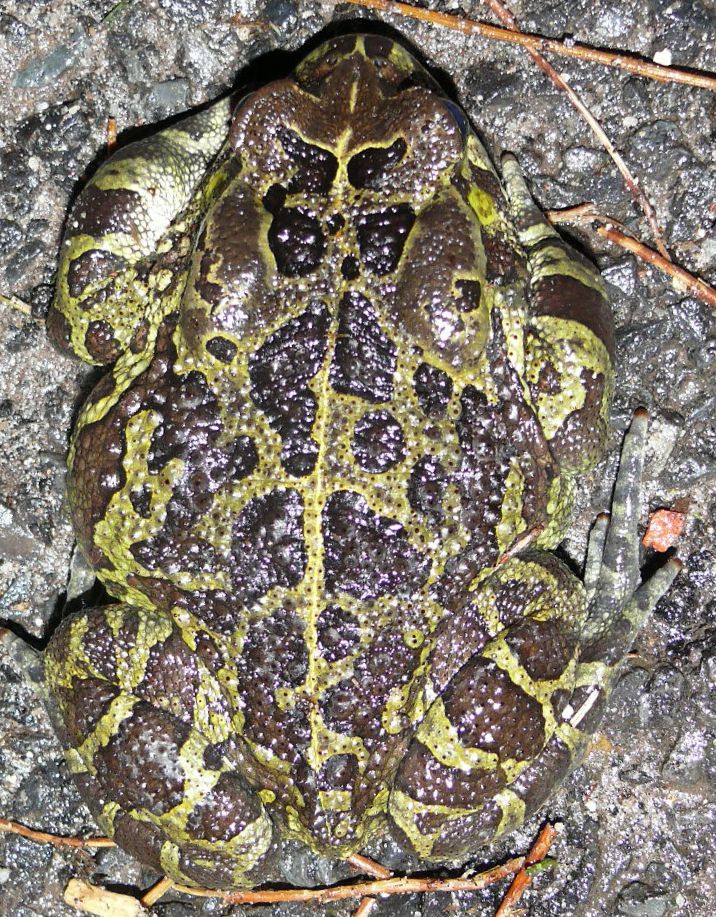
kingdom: Animalia
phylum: Chordata
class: Amphibia
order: Anura
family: Bufonidae
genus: Sclerophrys
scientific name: Sclerophrys pantherina
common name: Panther toad
